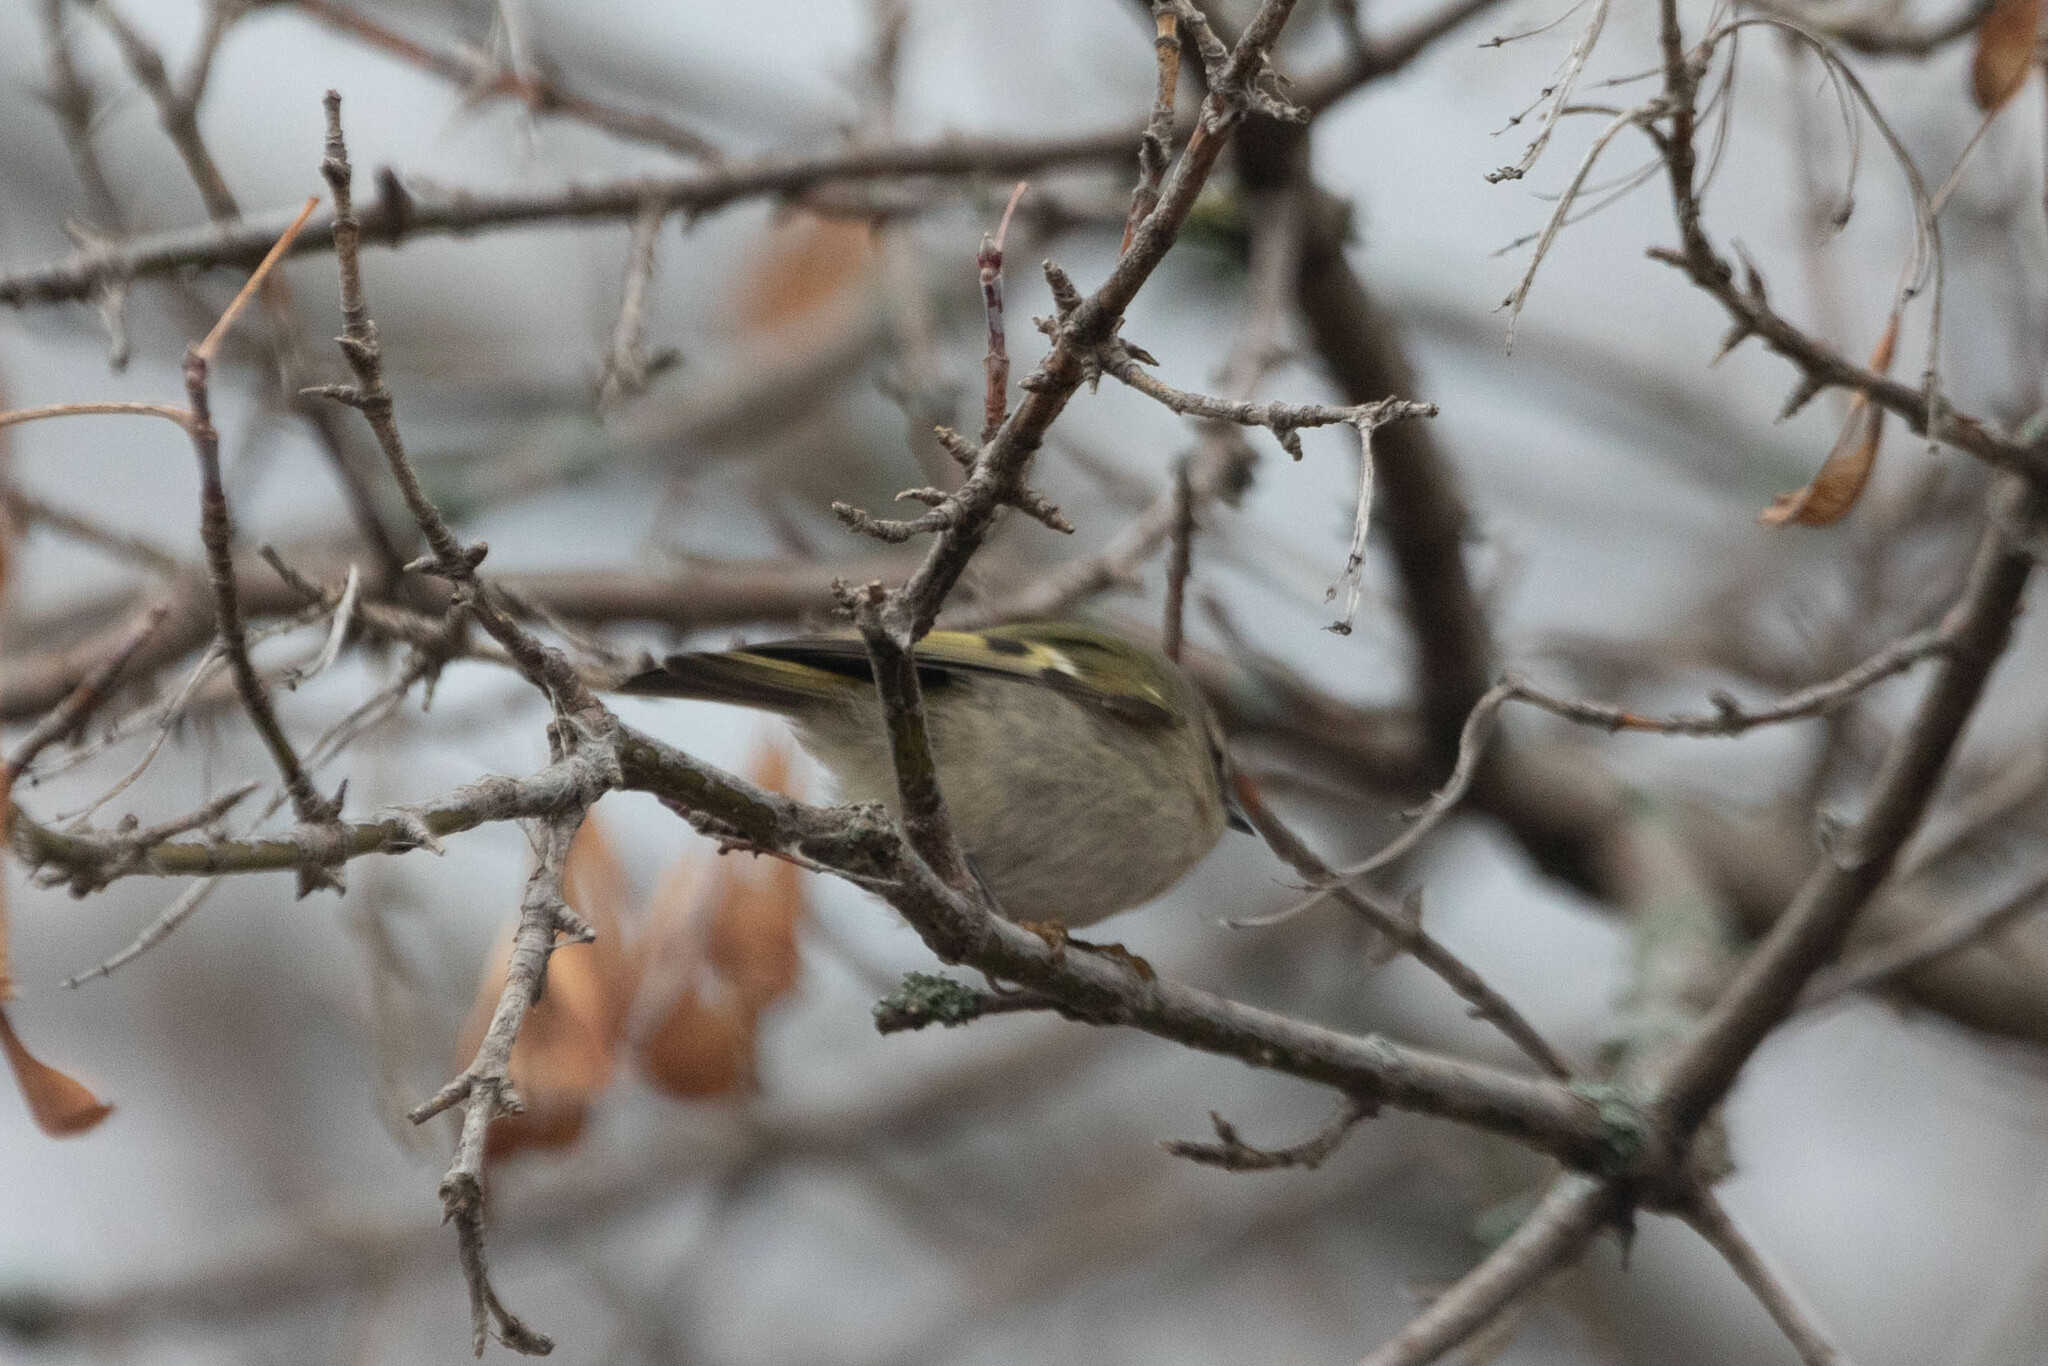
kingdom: Animalia
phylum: Chordata
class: Aves
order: Passeriformes
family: Regulidae
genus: Regulus
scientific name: Regulus satrapa
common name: Golden-crowned kinglet
